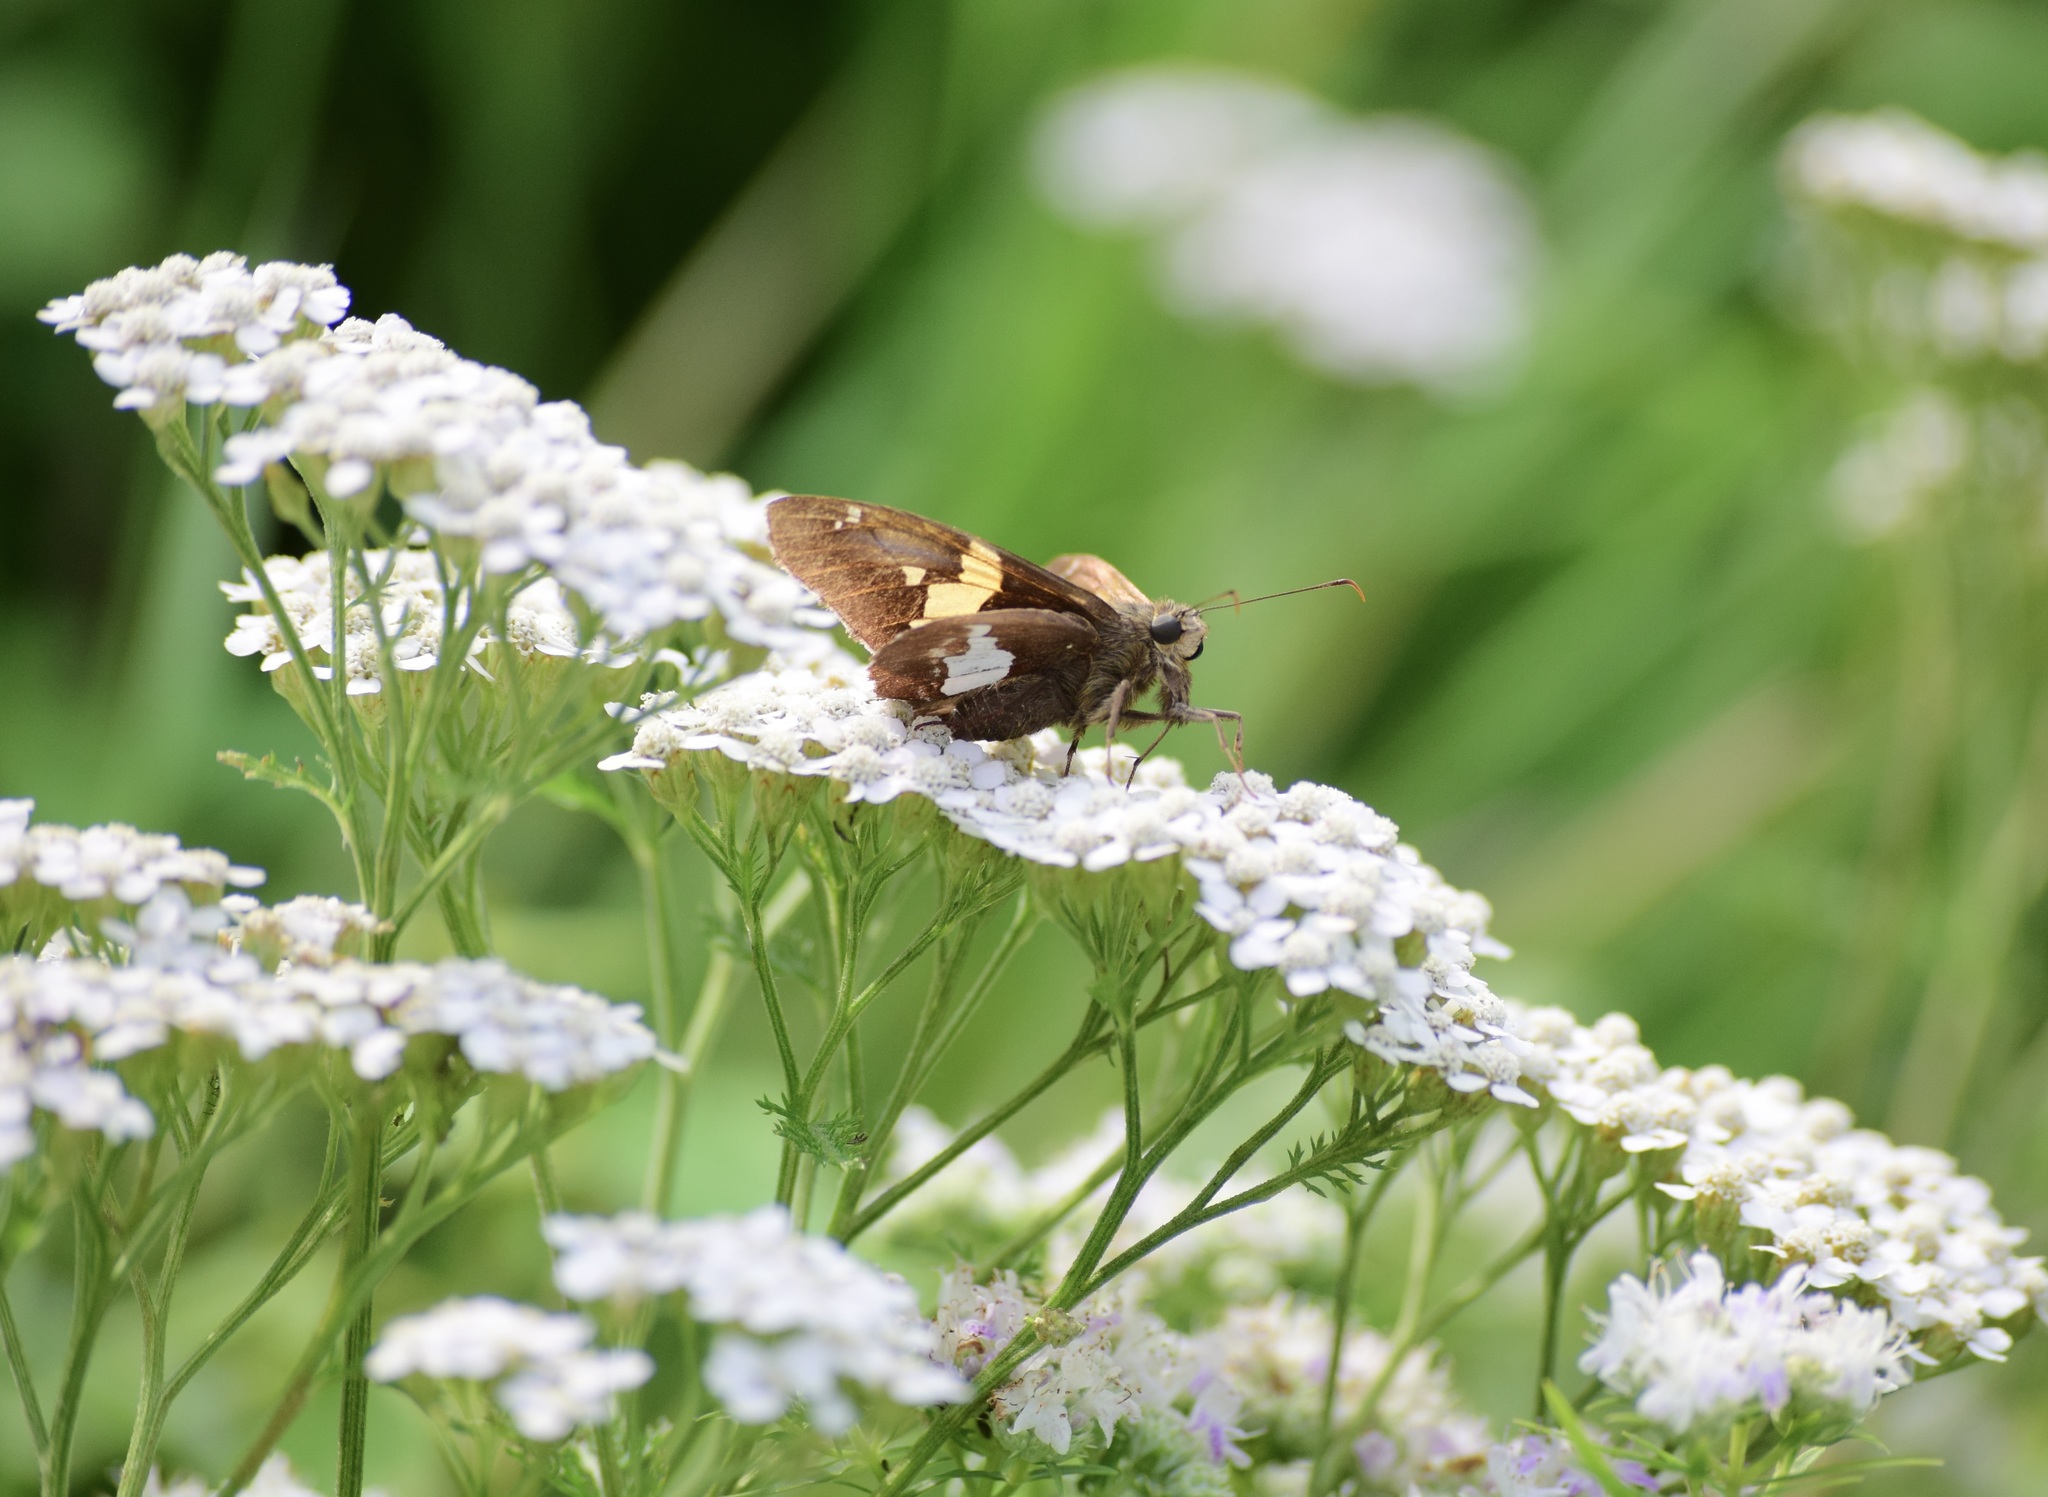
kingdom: Animalia
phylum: Arthropoda
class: Insecta
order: Lepidoptera
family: Hesperiidae
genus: Epargyreus
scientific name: Epargyreus clarus
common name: Silver-spotted skipper
